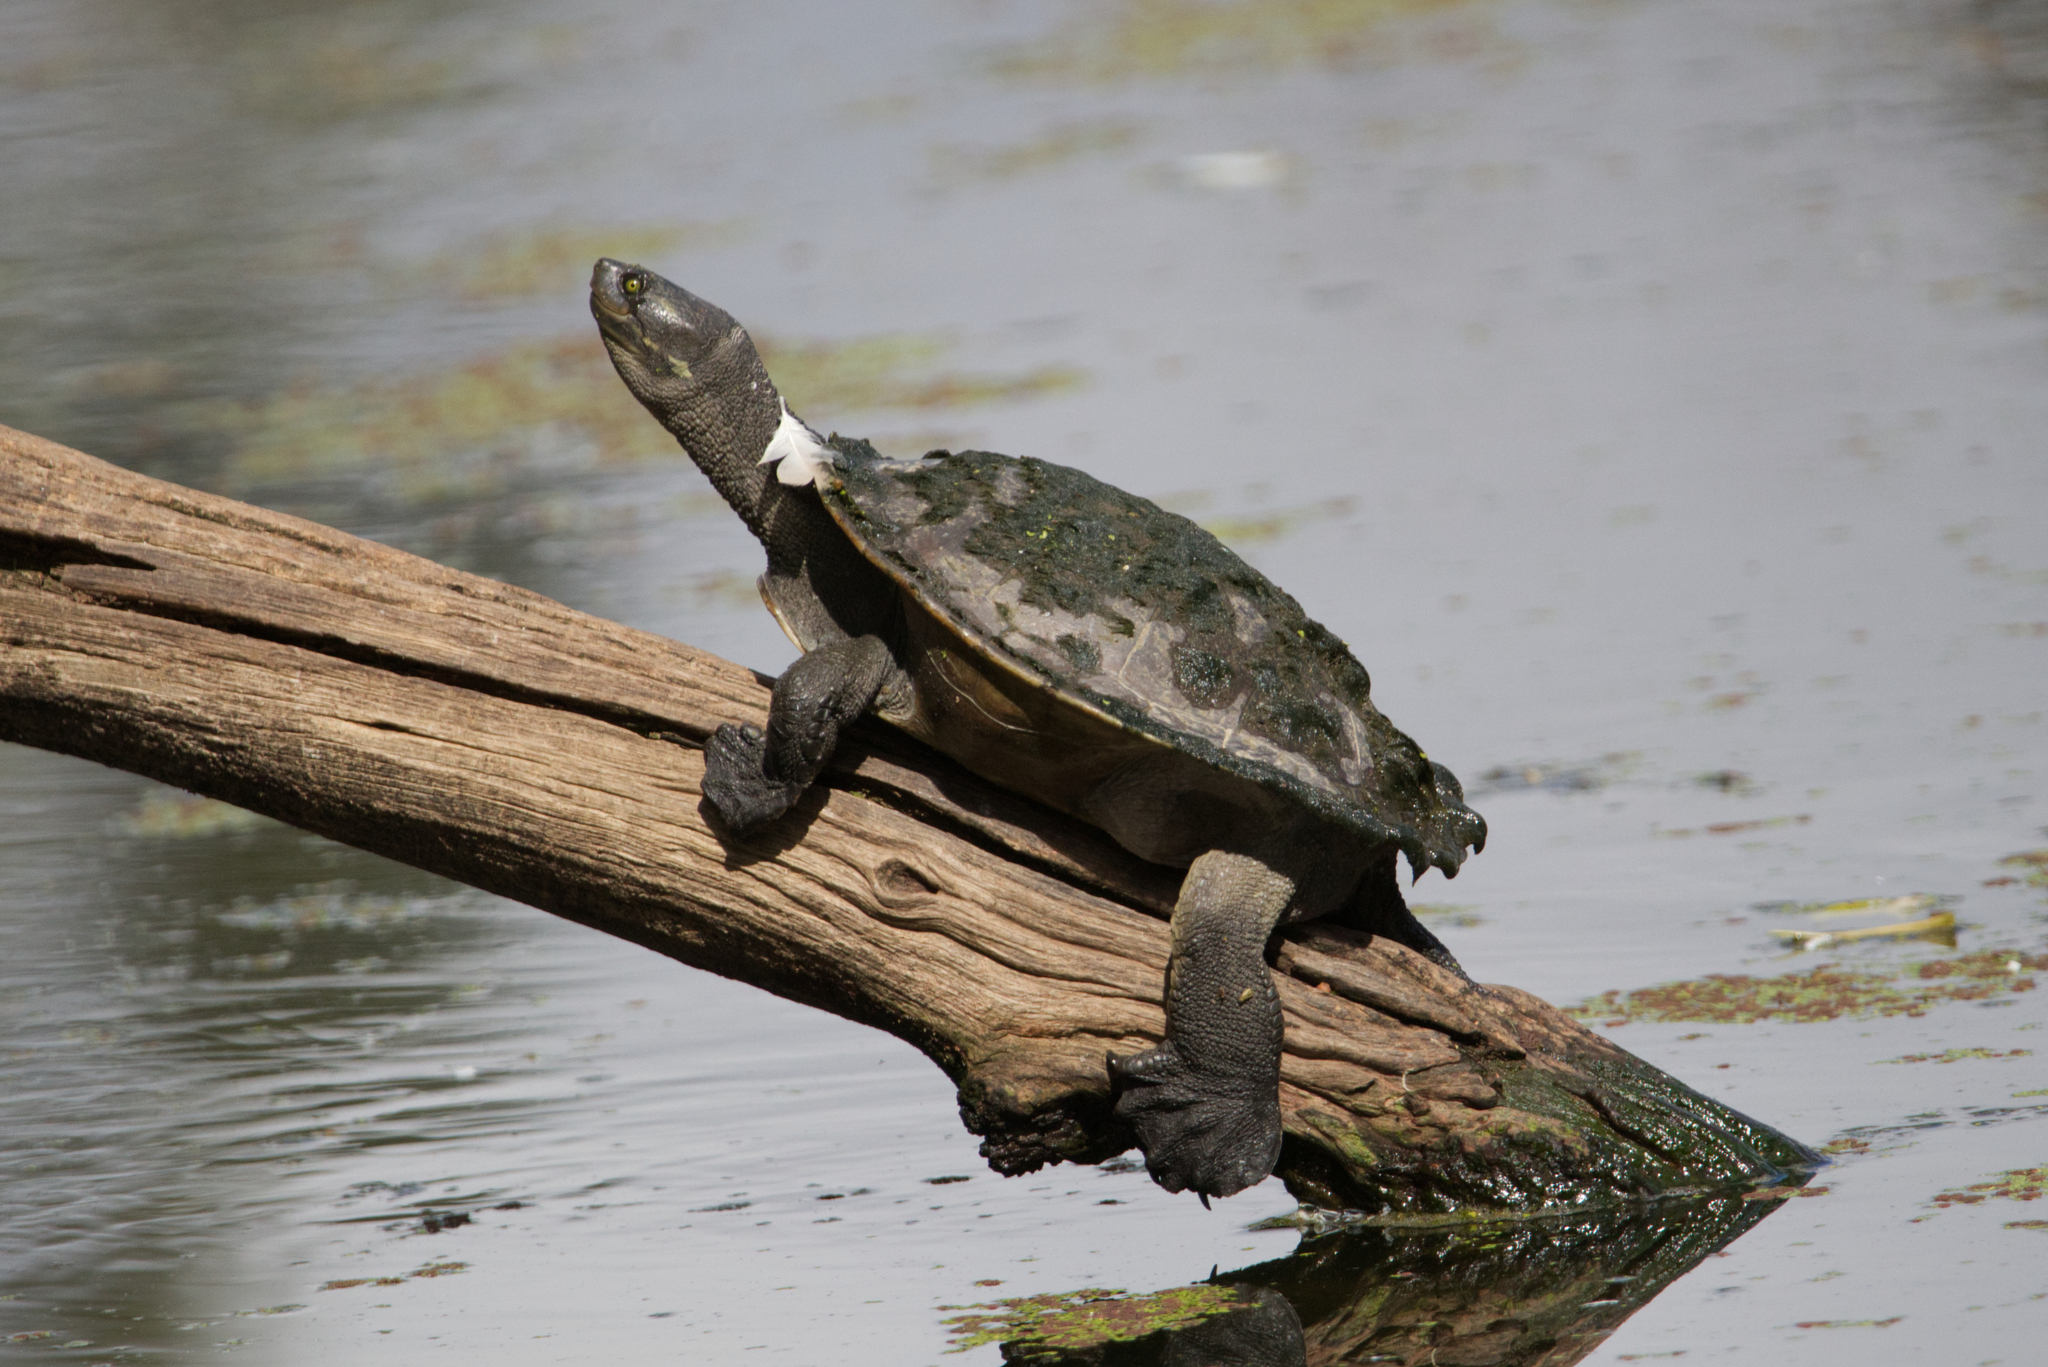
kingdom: Animalia
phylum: Chordata
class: Testudines
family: Chelidae
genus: Emydura
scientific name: Emydura macquarii
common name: Murray river turtle
